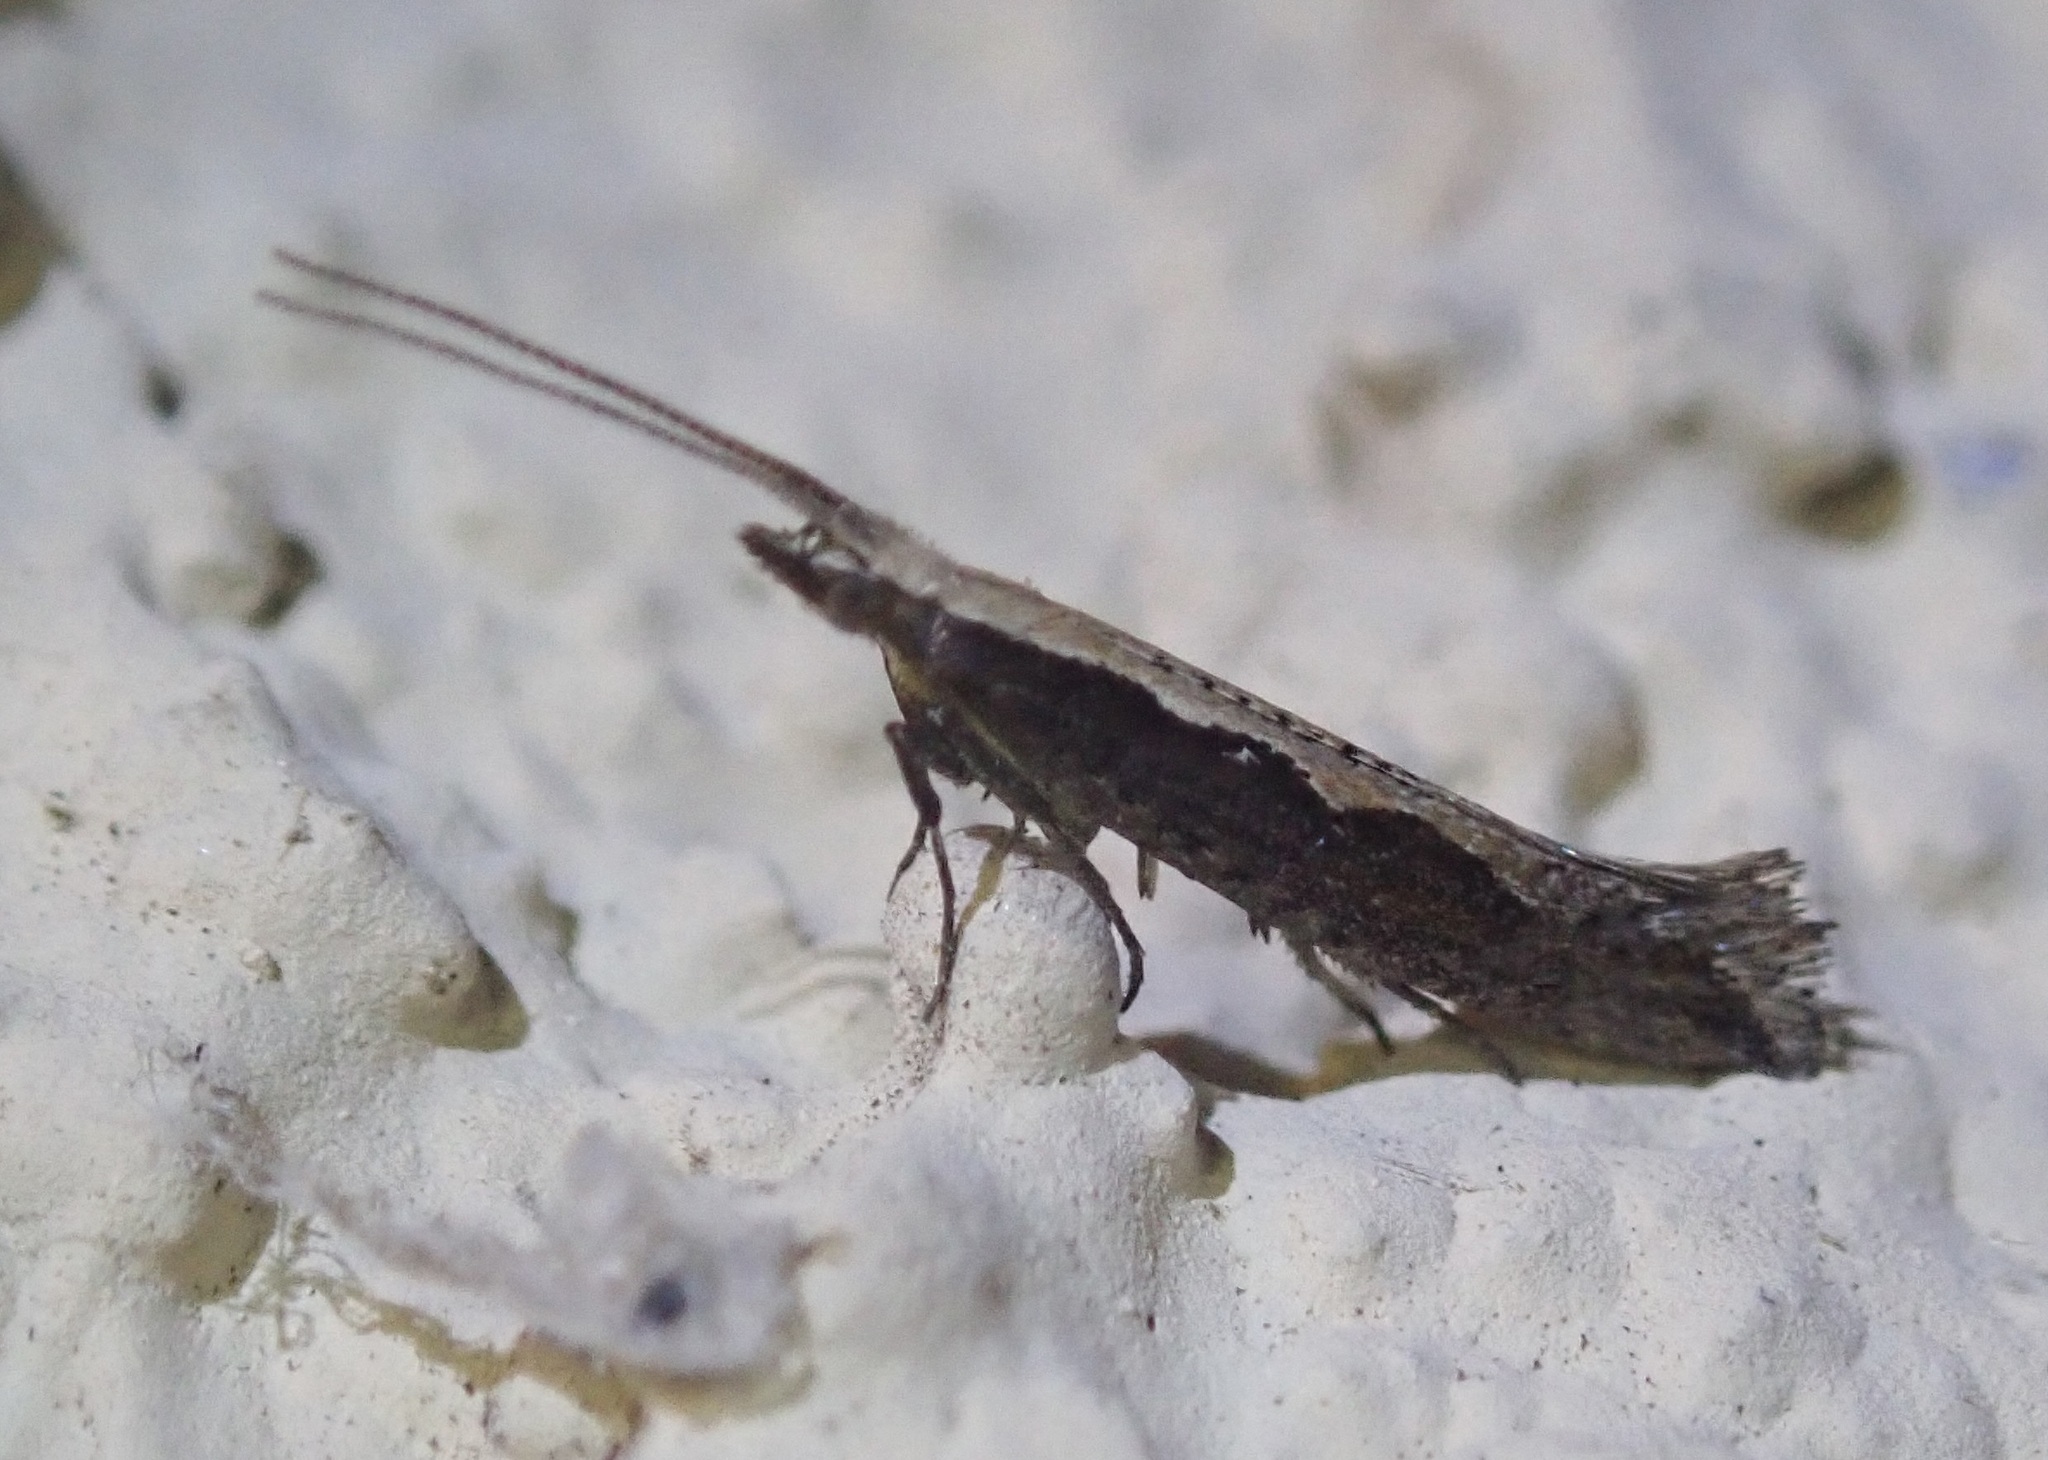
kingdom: Animalia
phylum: Arthropoda
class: Insecta
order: Lepidoptera
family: Plutellidae
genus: Plutella
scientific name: Plutella xylostella
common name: Diamond-back moth
